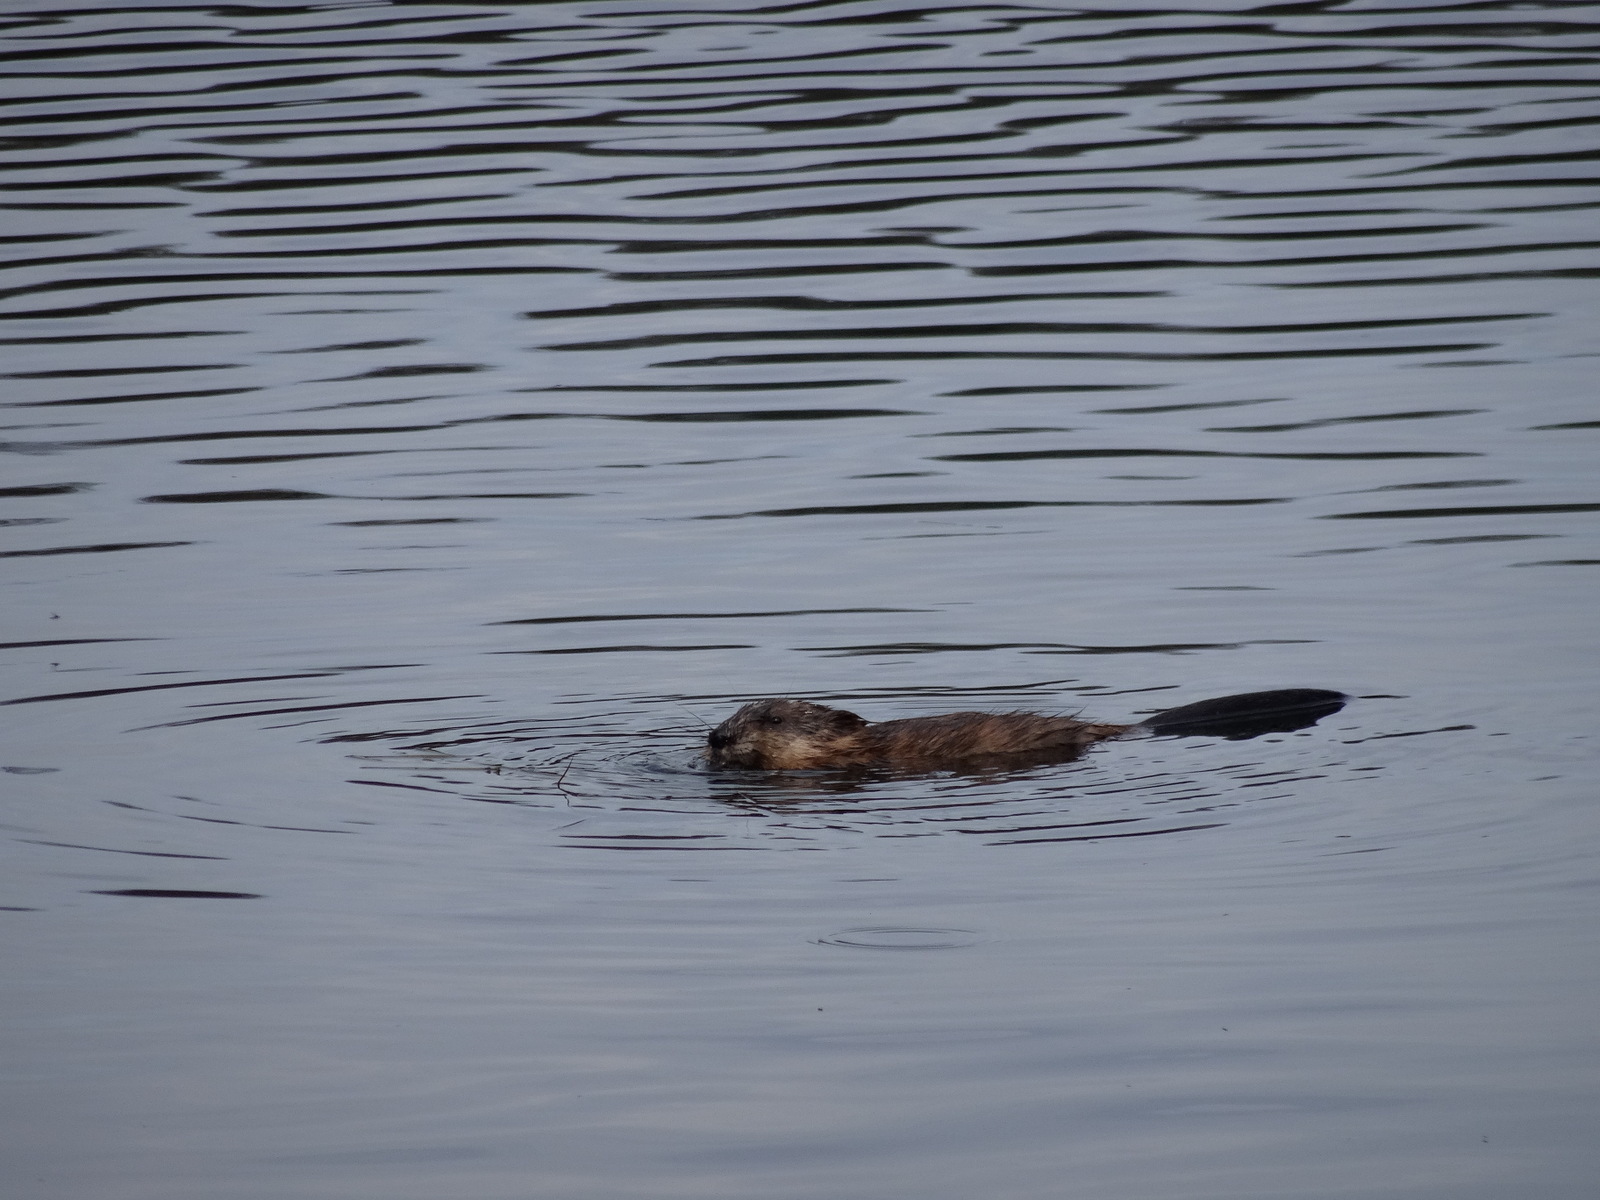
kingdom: Animalia
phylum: Chordata
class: Mammalia
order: Rodentia
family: Cricetidae
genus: Ondatra
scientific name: Ondatra zibethicus
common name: Muskrat
